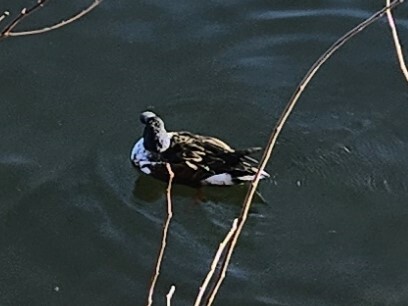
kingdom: Animalia
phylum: Chordata
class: Aves
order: Anseriformes
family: Anatidae
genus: Spatula
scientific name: Spatula clypeata
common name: Northern shoveler
